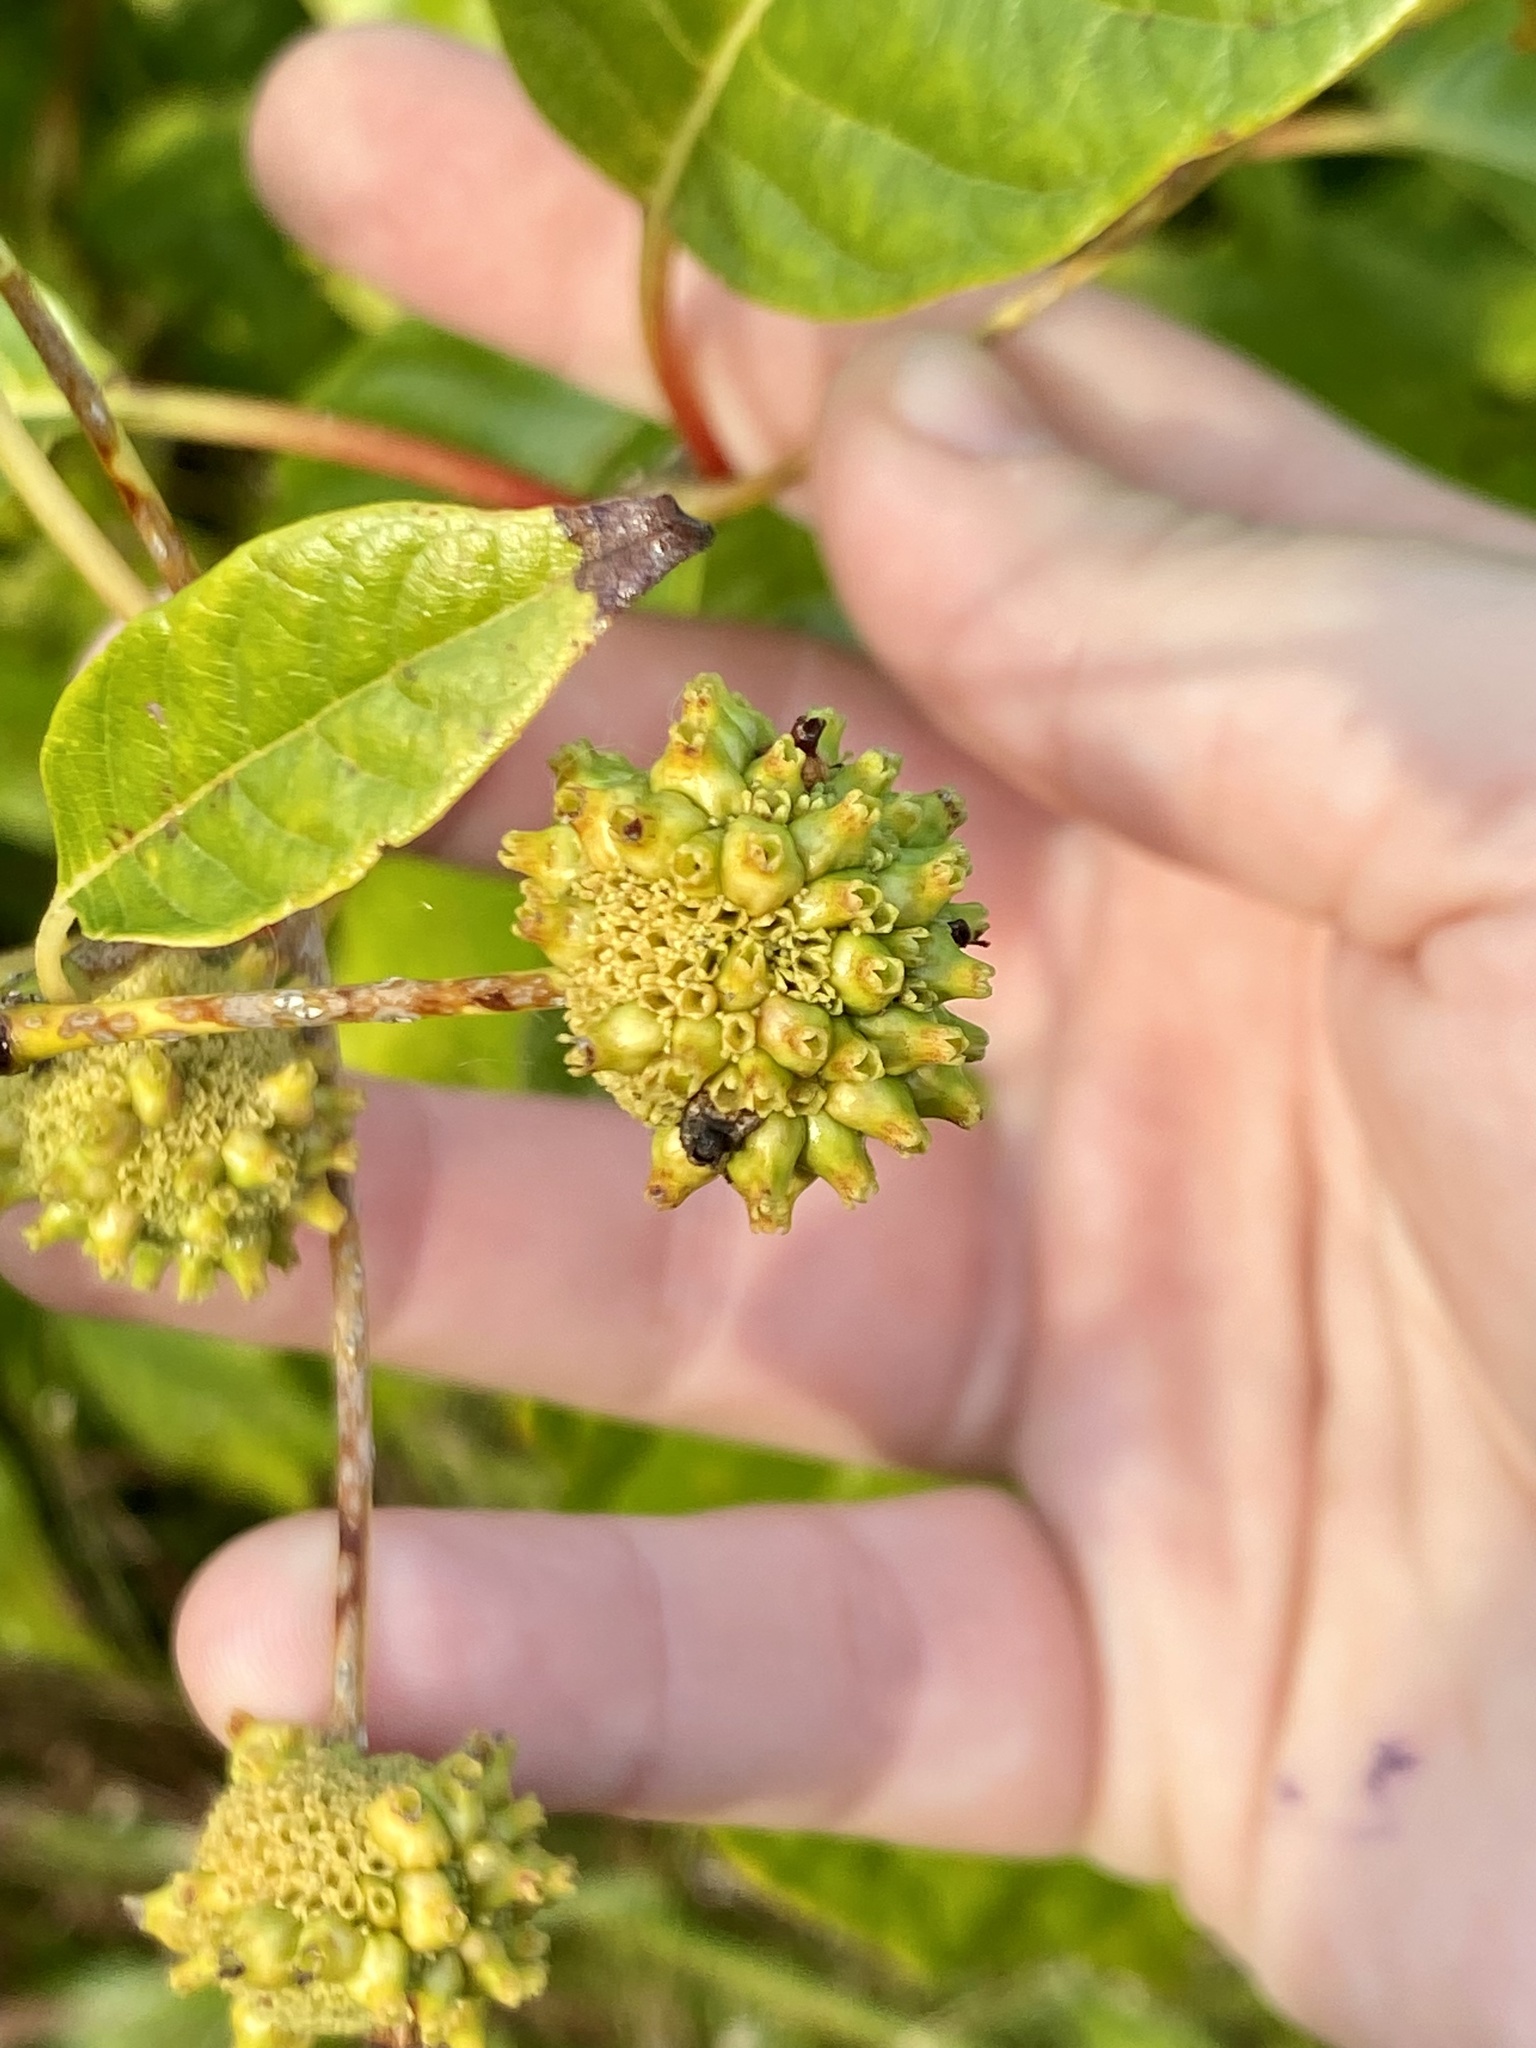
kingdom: Plantae
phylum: Tracheophyta
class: Magnoliopsida
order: Gentianales
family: Rubiaceae
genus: Cephalanthus
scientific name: Cephalanthus occidentalis
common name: Button-willow
